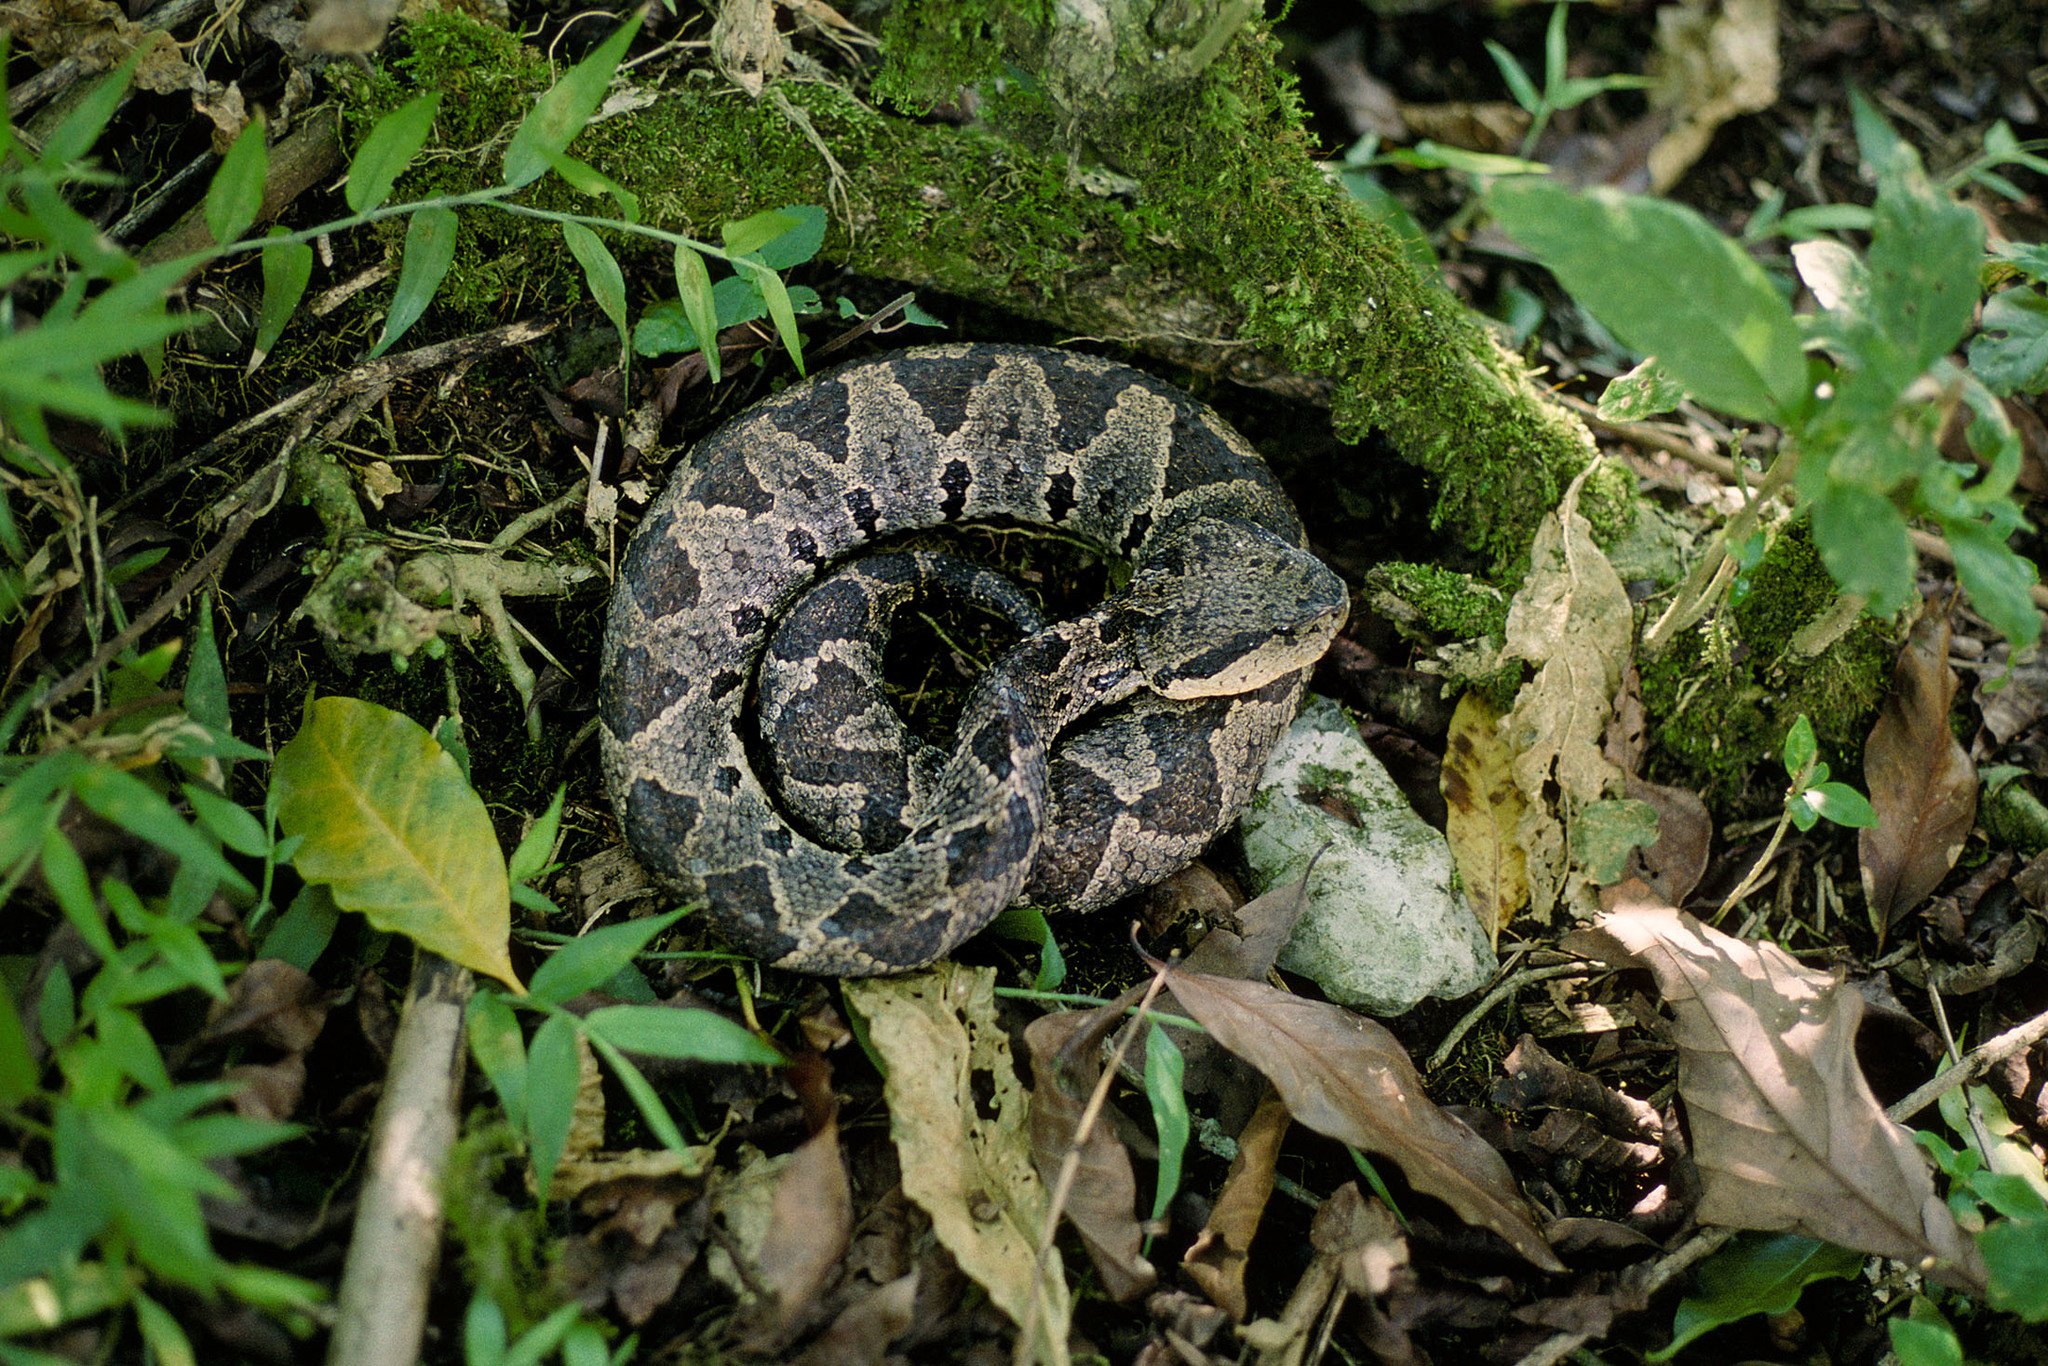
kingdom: Animalia
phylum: Chordata
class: Squamata
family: Viperidae
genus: Metlapilcoatlus
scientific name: Metlapilcoatlus borealis
